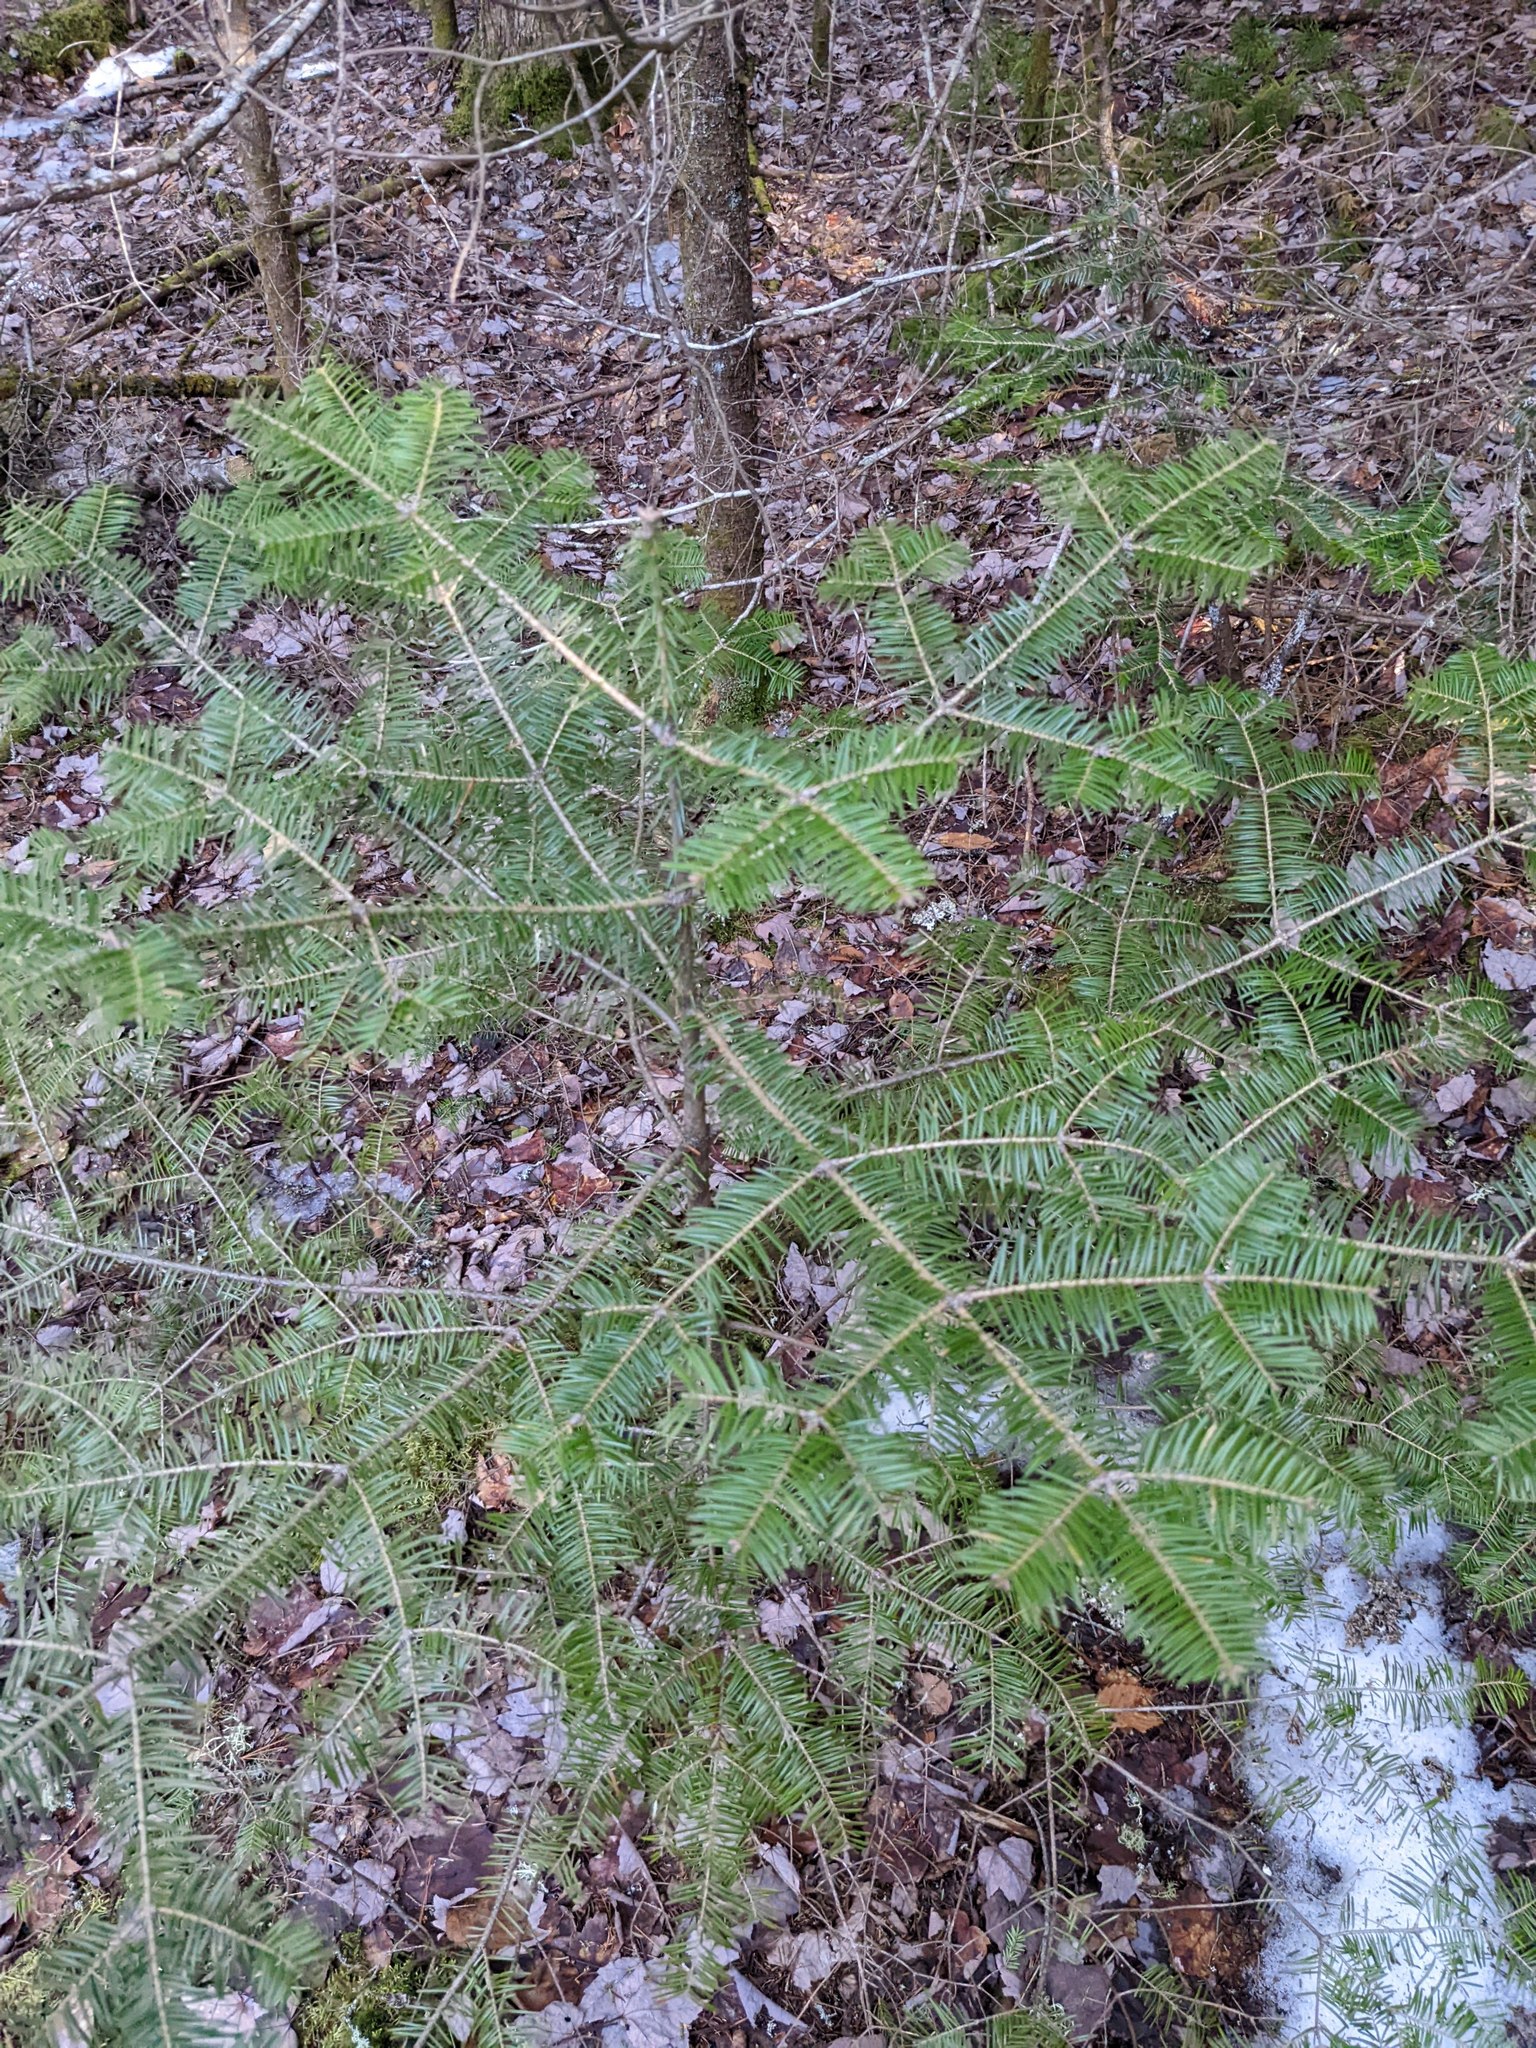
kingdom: Plantae
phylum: Tracheophyta
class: Pinopsida
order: Pinales
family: Pinaceae
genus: Abies
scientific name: Abies balsamea
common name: Balsam fir
